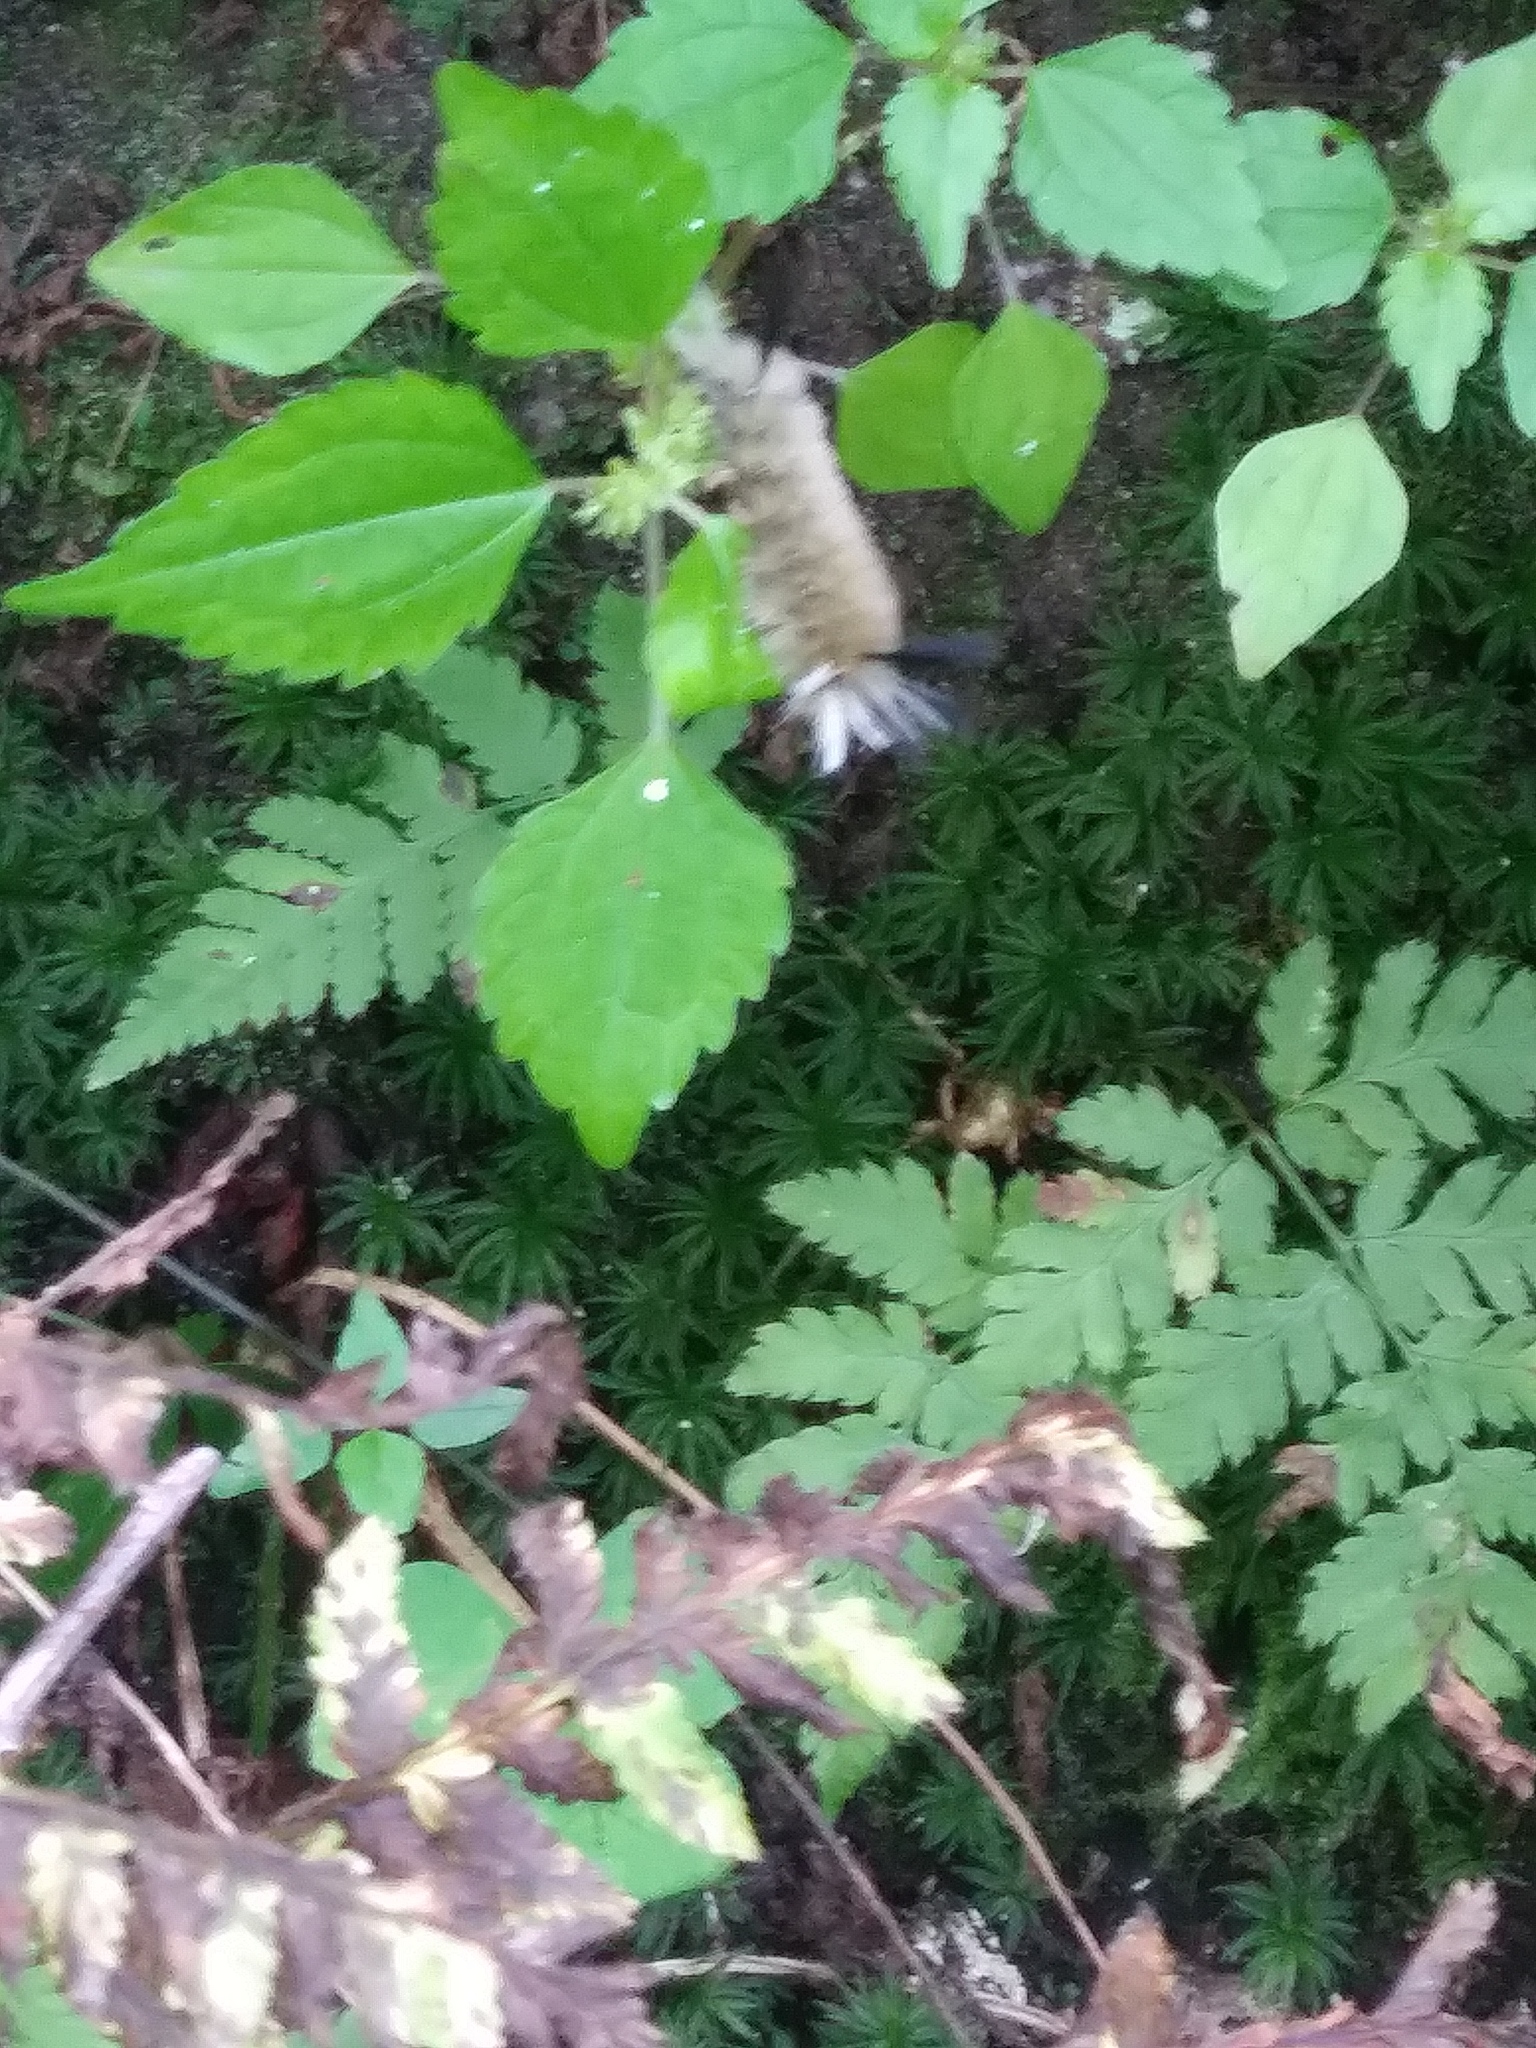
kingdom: Animalia
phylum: Arthropoda
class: Insecta
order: Lepidoptera
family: Erebidae
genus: Halysidota
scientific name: Halysidota tessellaris
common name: Banded tussock moth
